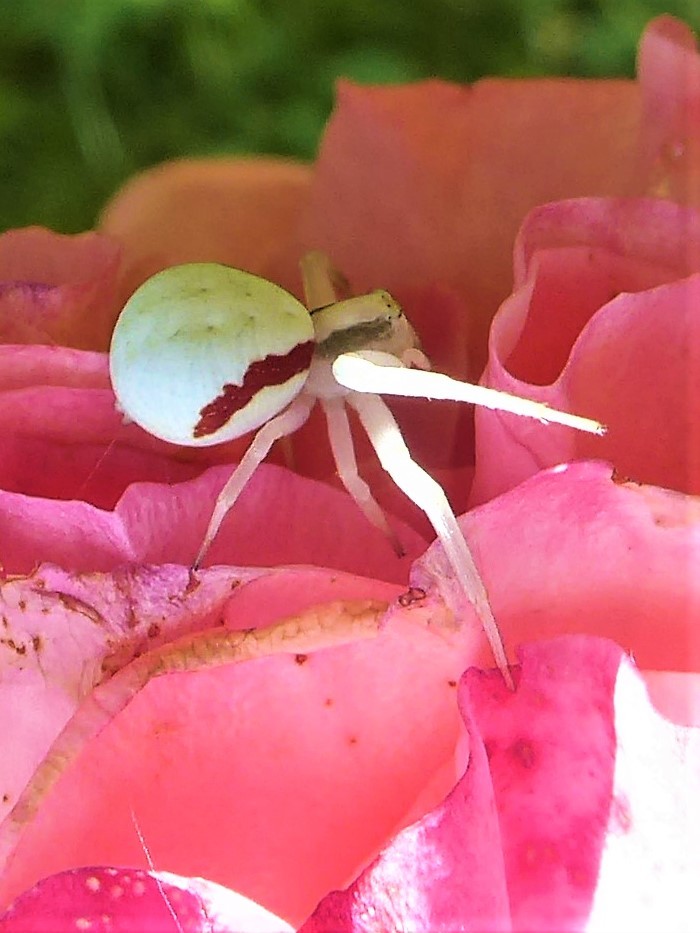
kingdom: Animalia
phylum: Arthropoda
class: Arachnida
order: Araneae
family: Thomisidae
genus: Misumena
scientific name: Misumena vatia
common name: Goldenrod crab spider
